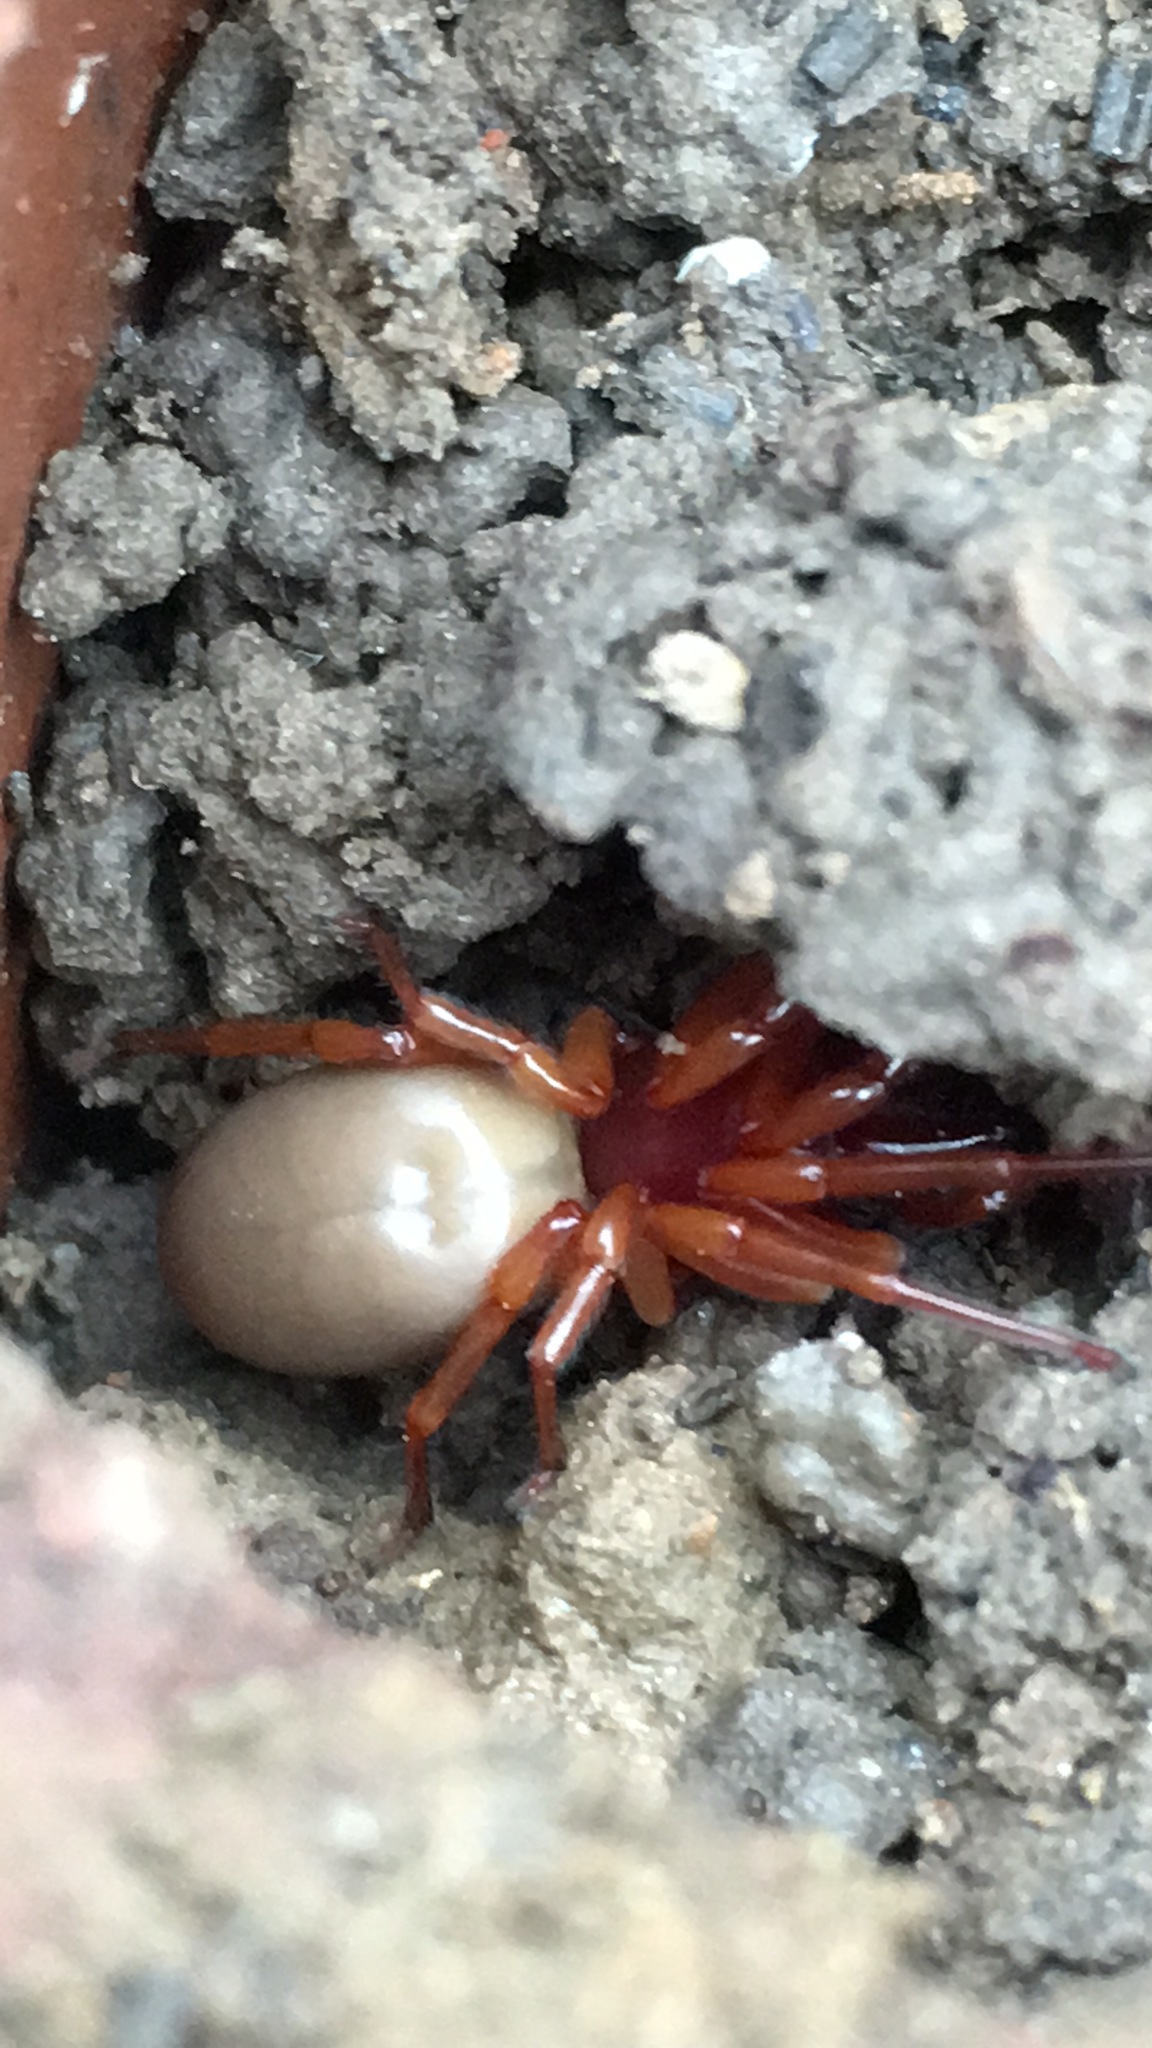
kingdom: Animalia
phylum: Arthropoda
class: Arachnida
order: Araneae
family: Dysderidae
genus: Dysdera
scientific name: Dysdera crocata
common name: Woodlouse spider
